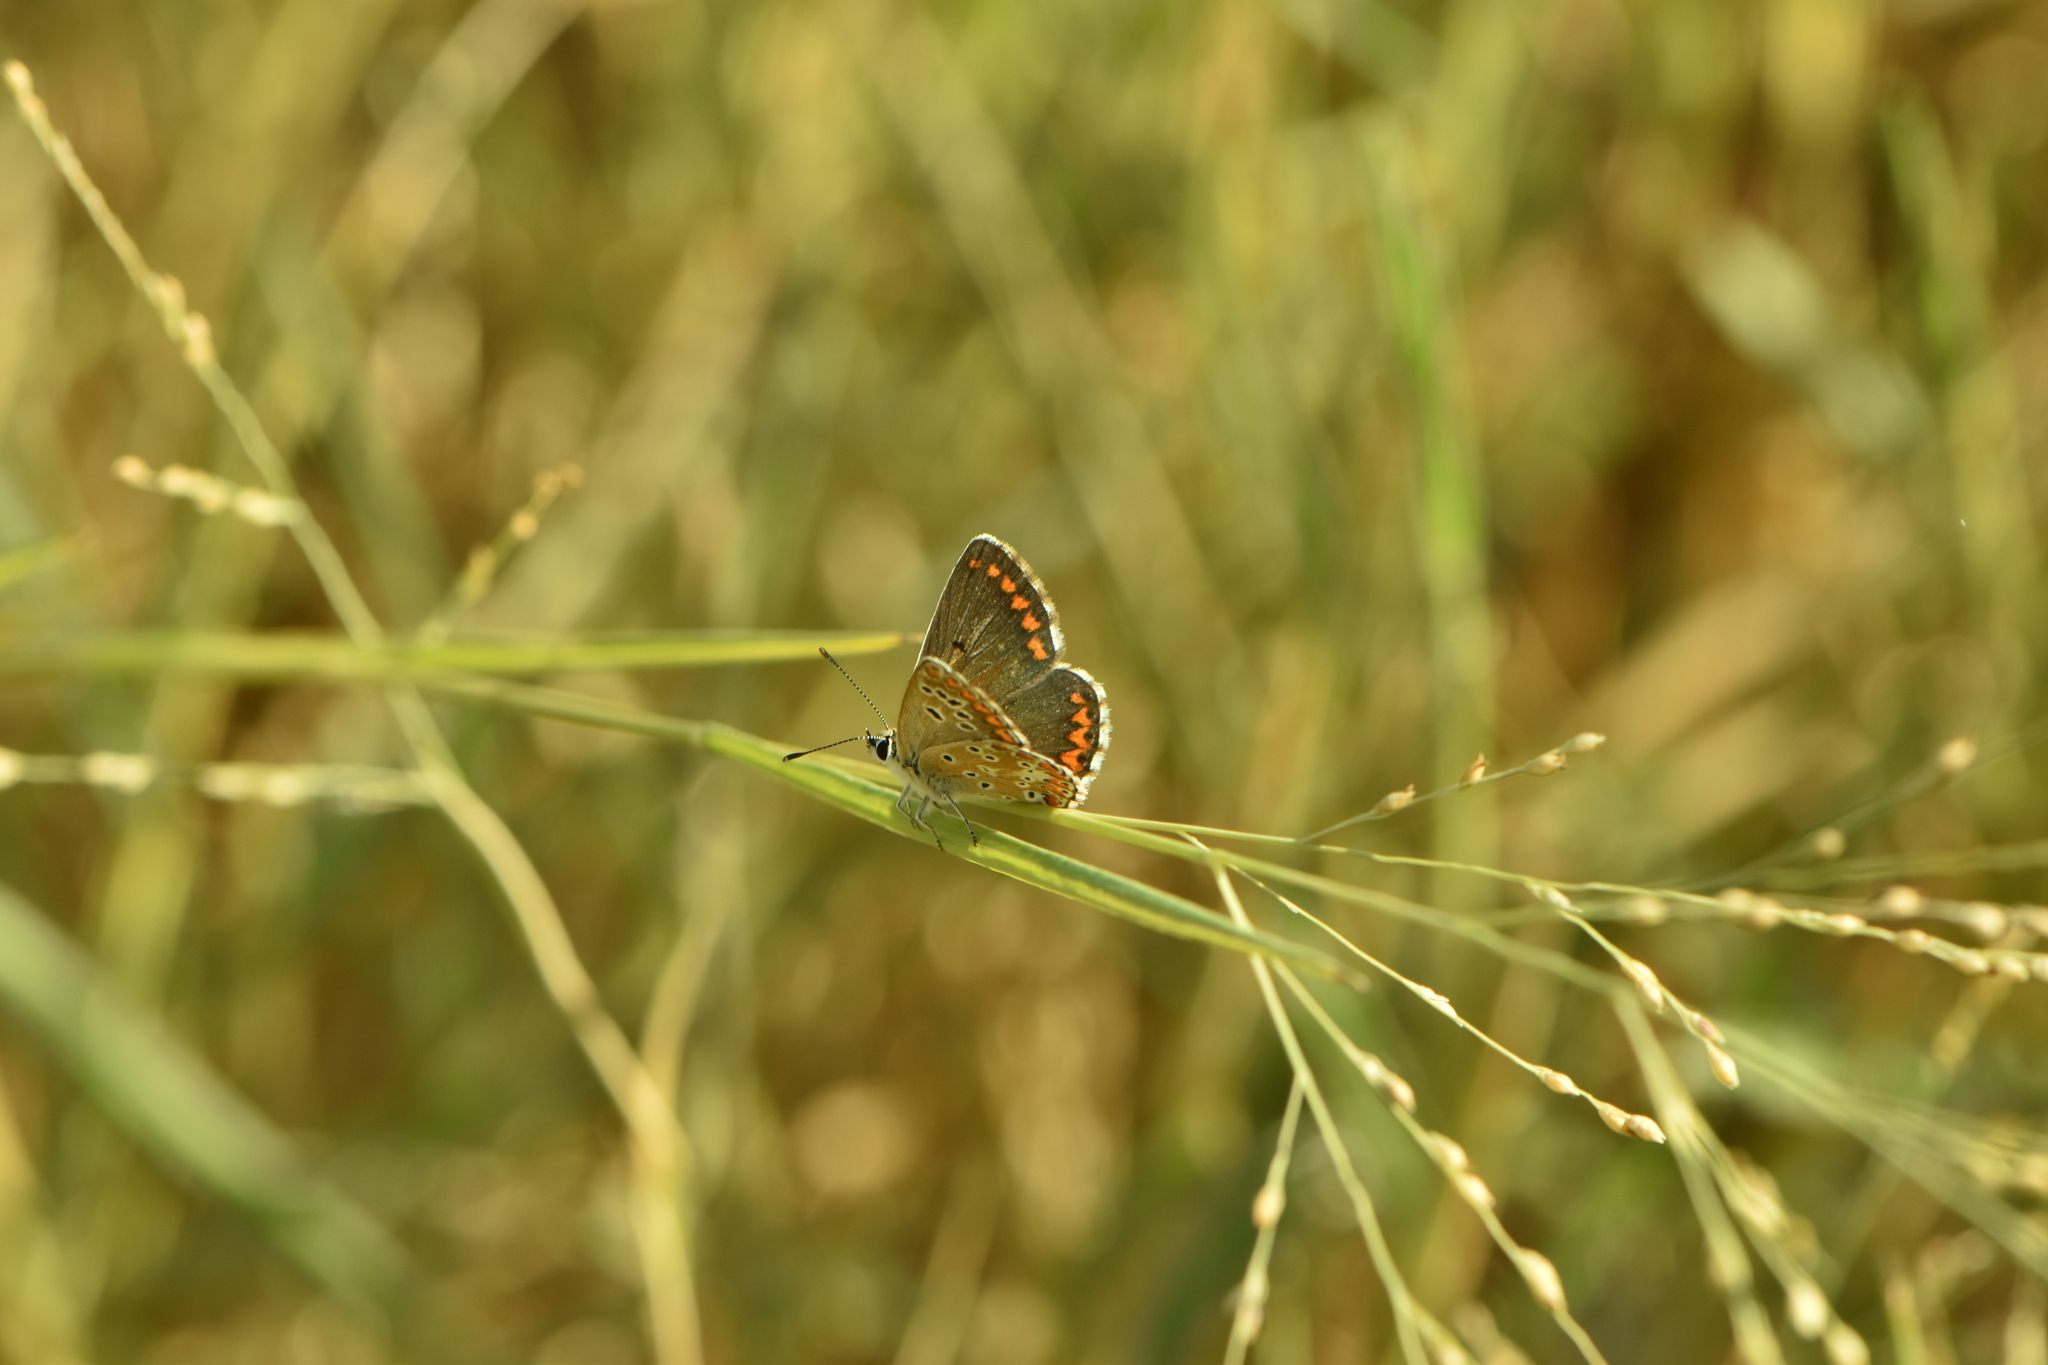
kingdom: Animalia
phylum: Arthropoda
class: Insecta
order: Lepidoptera
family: Lycaenidae
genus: Aricia
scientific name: Aricia cramera
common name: Eschscholtz´s brown  argus
